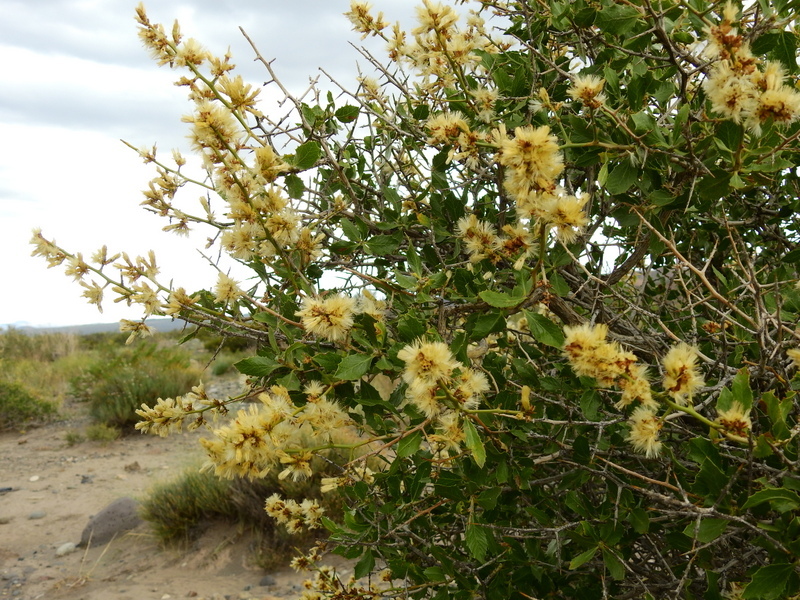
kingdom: Plantae
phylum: Tracheophyta
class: Magnoliopsida
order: Asterales
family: Asteraceae
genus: Proustia
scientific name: Proustia cuneifolia
